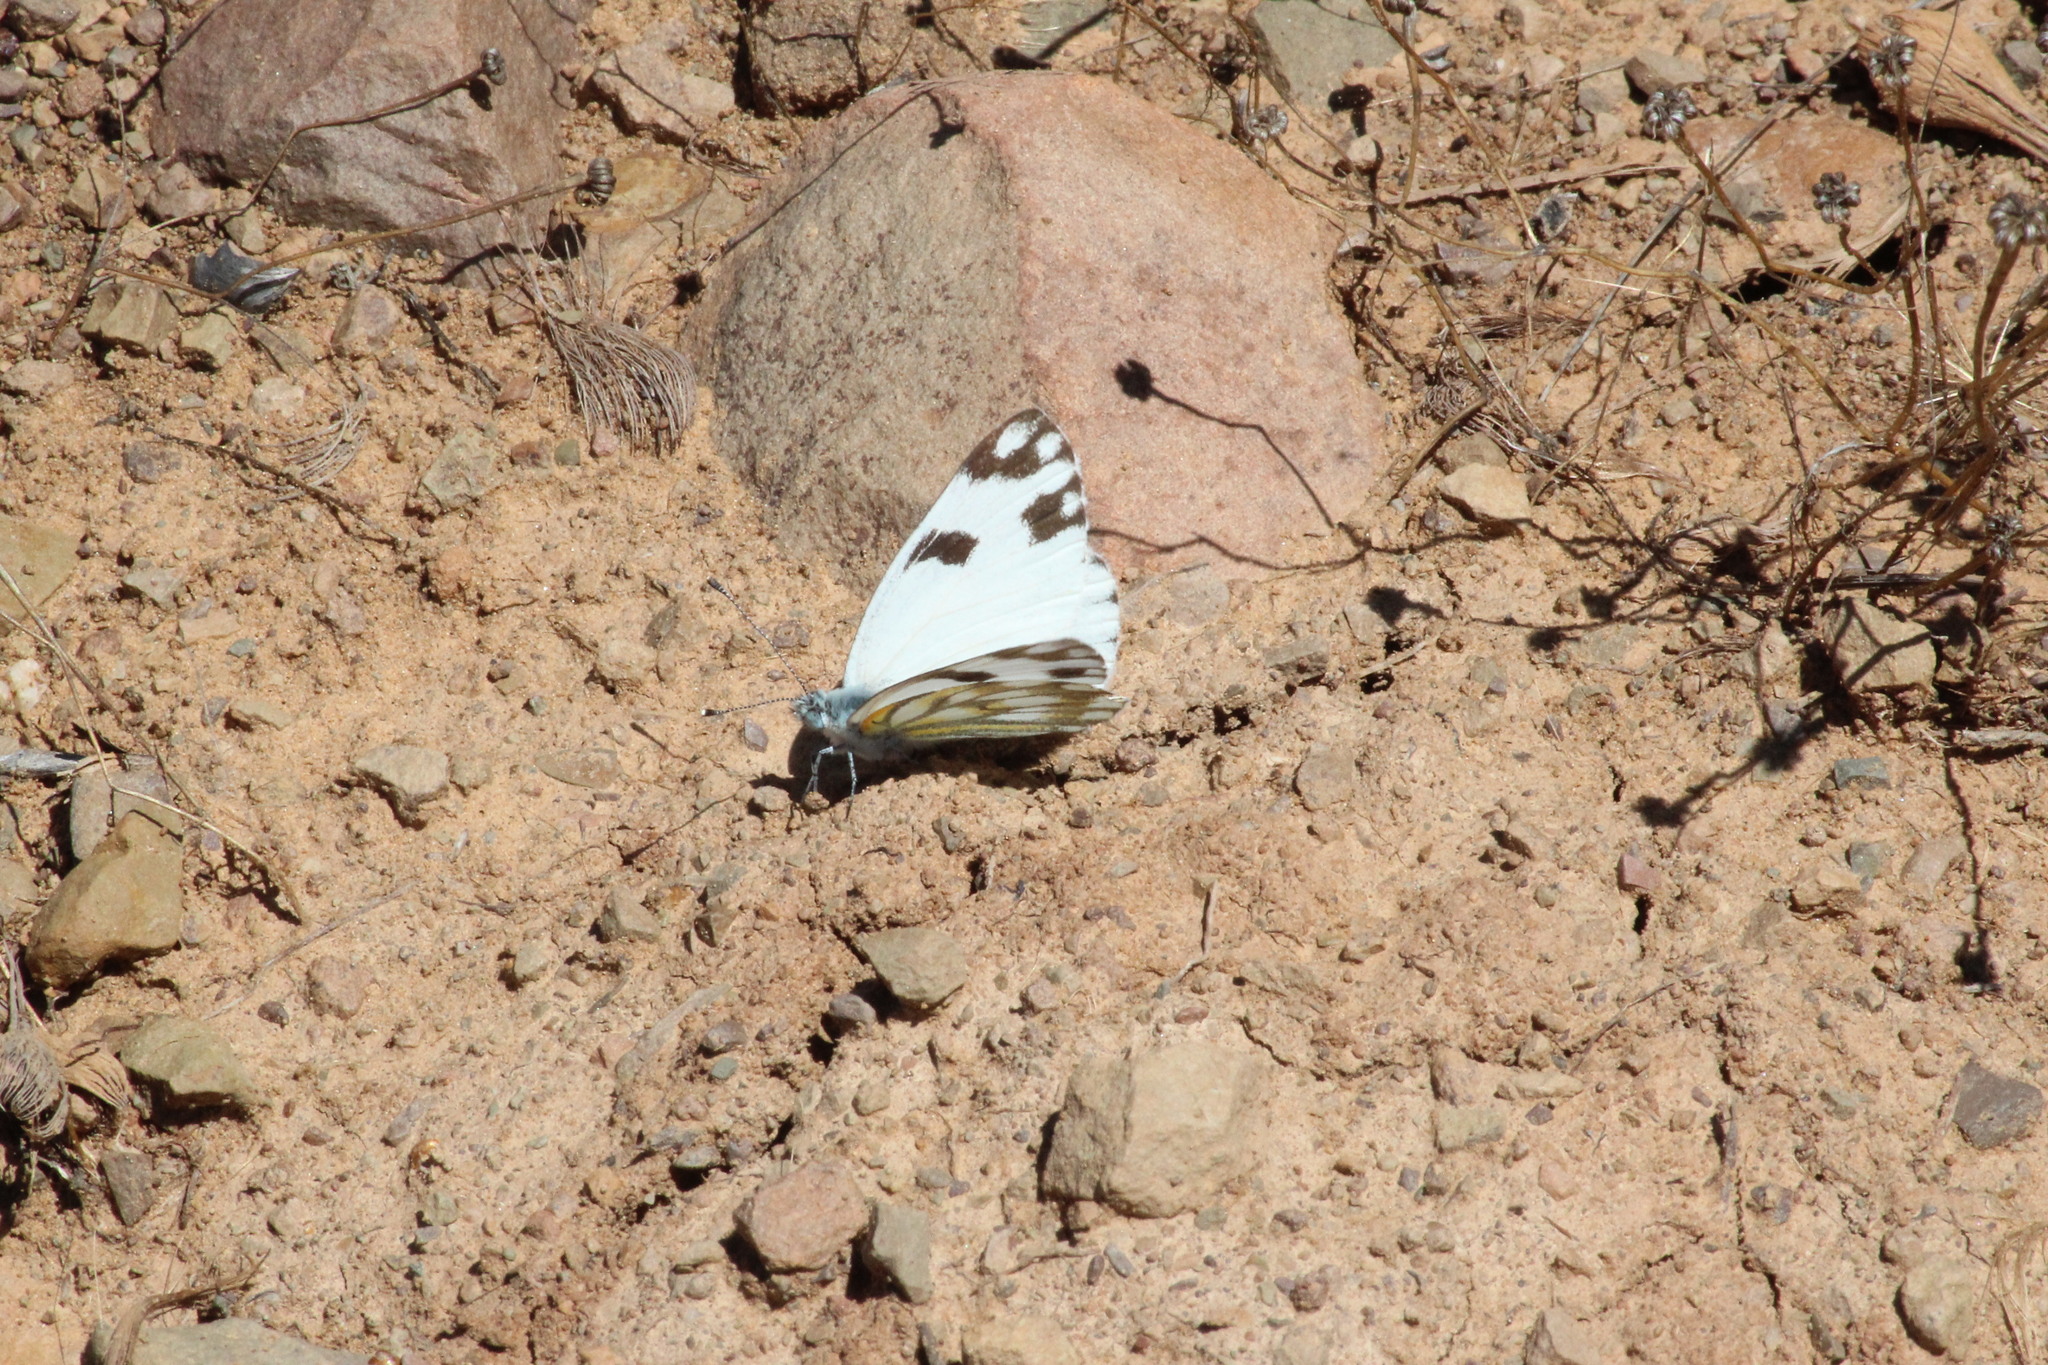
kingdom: Animalia
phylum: Arthropoda
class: Insecta
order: Lepidoptera
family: Pieridae
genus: Pontia
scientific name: Pontia helice
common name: Meadow white
